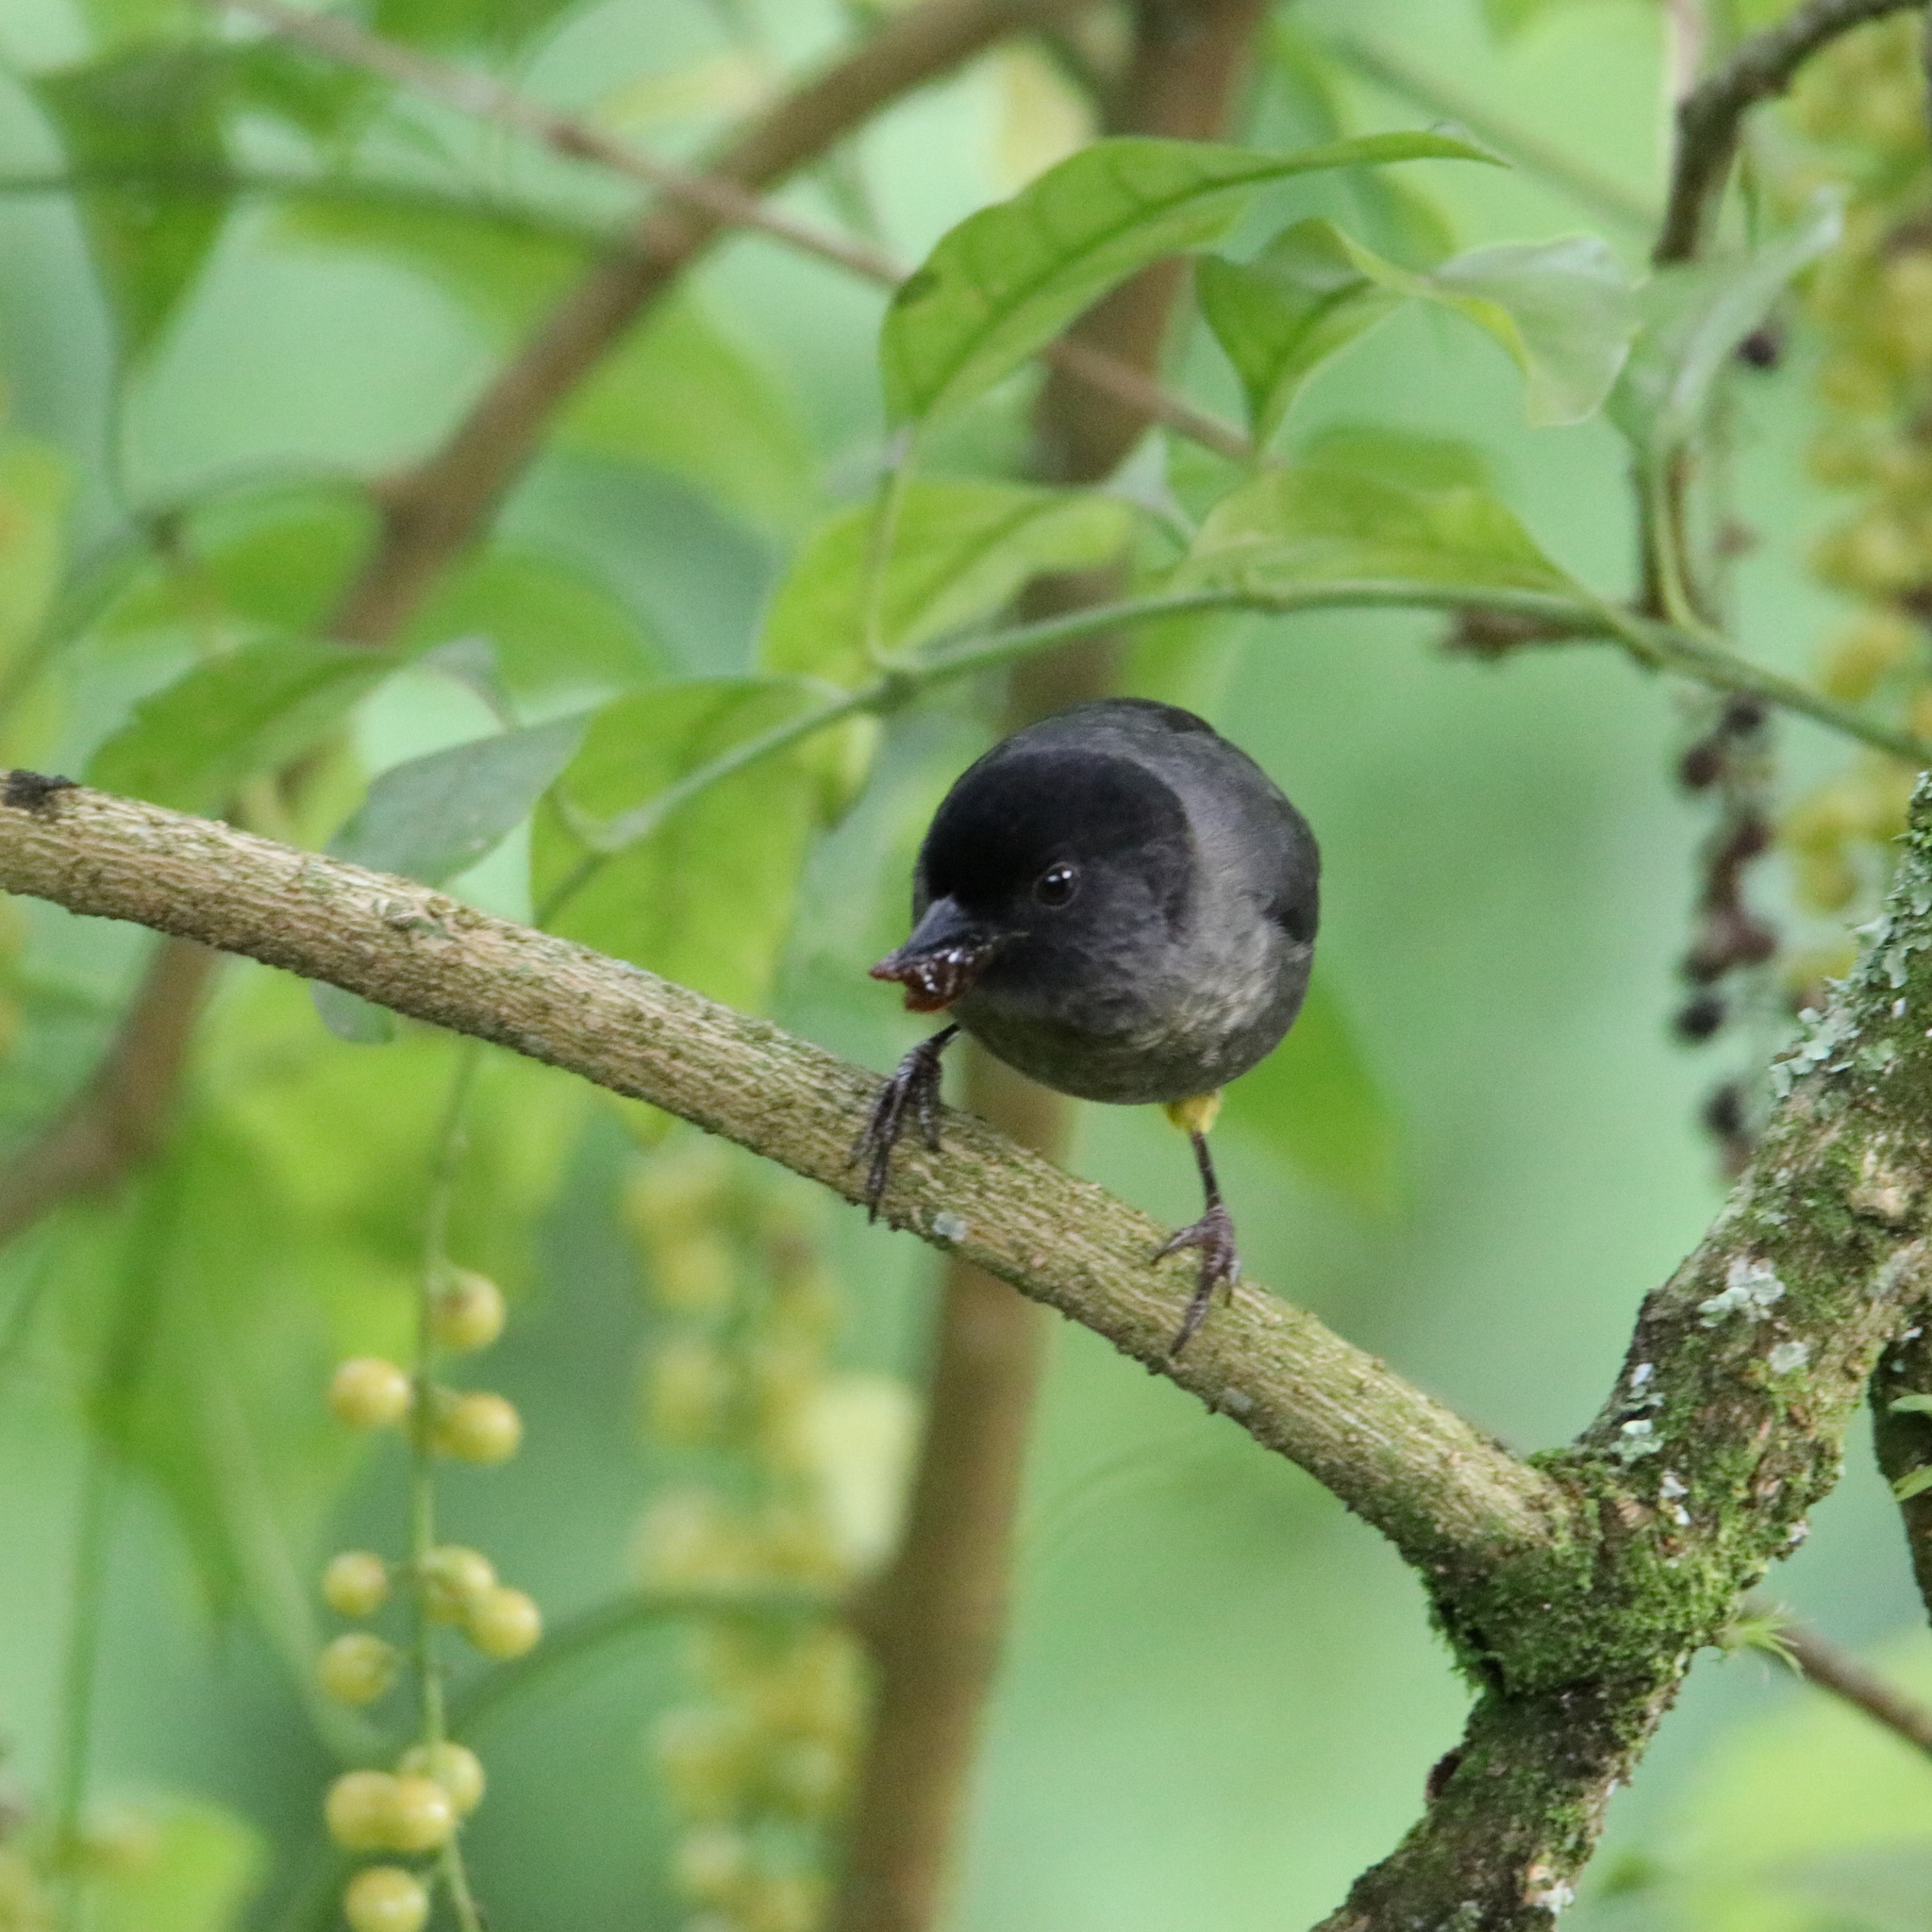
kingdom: Animalia
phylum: Chordata
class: Aves
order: Passeriformes
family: Passerellidae
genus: Atlapetes
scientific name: Atlapetes tibialis
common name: Yellow-thighed brushfinch
